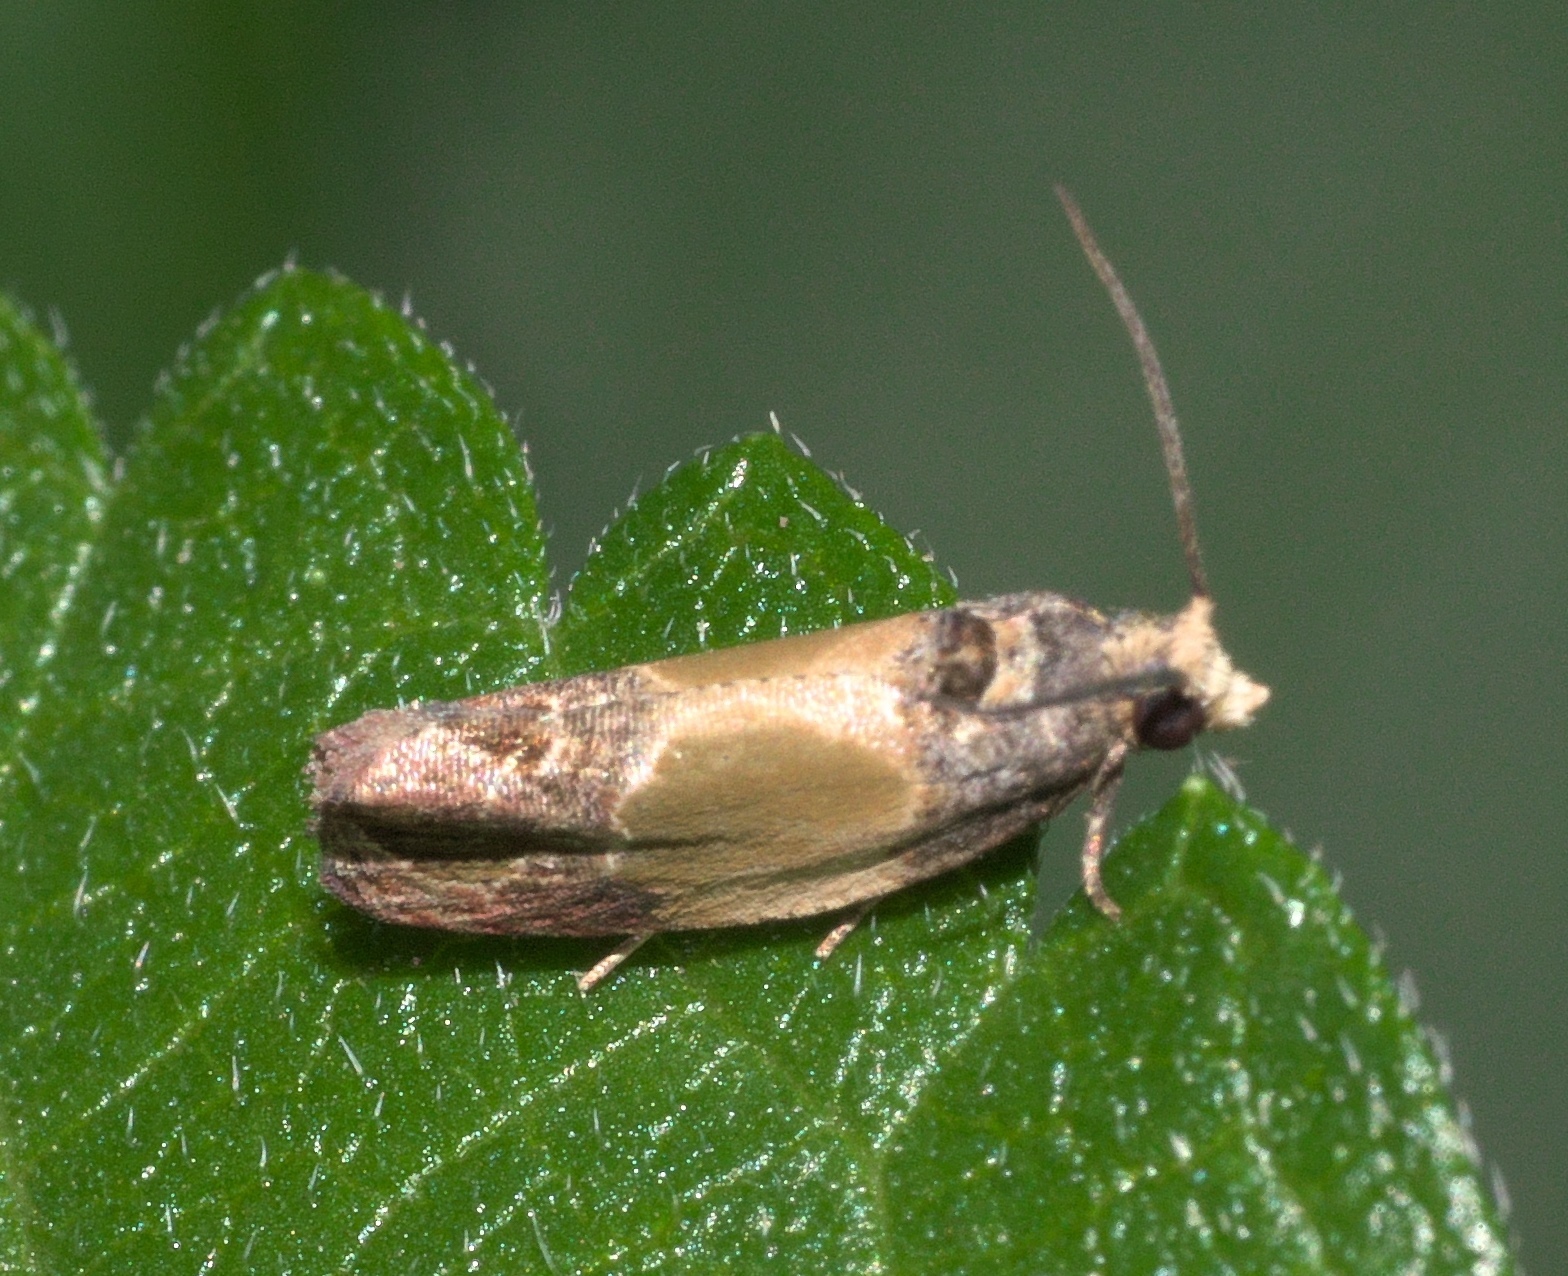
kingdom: Animalia
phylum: Arthropoda
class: Insecta
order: Lepidoptera
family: Tortricidae
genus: Eumarozia
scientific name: Eumarozia malachitana
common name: Sculptured moth
